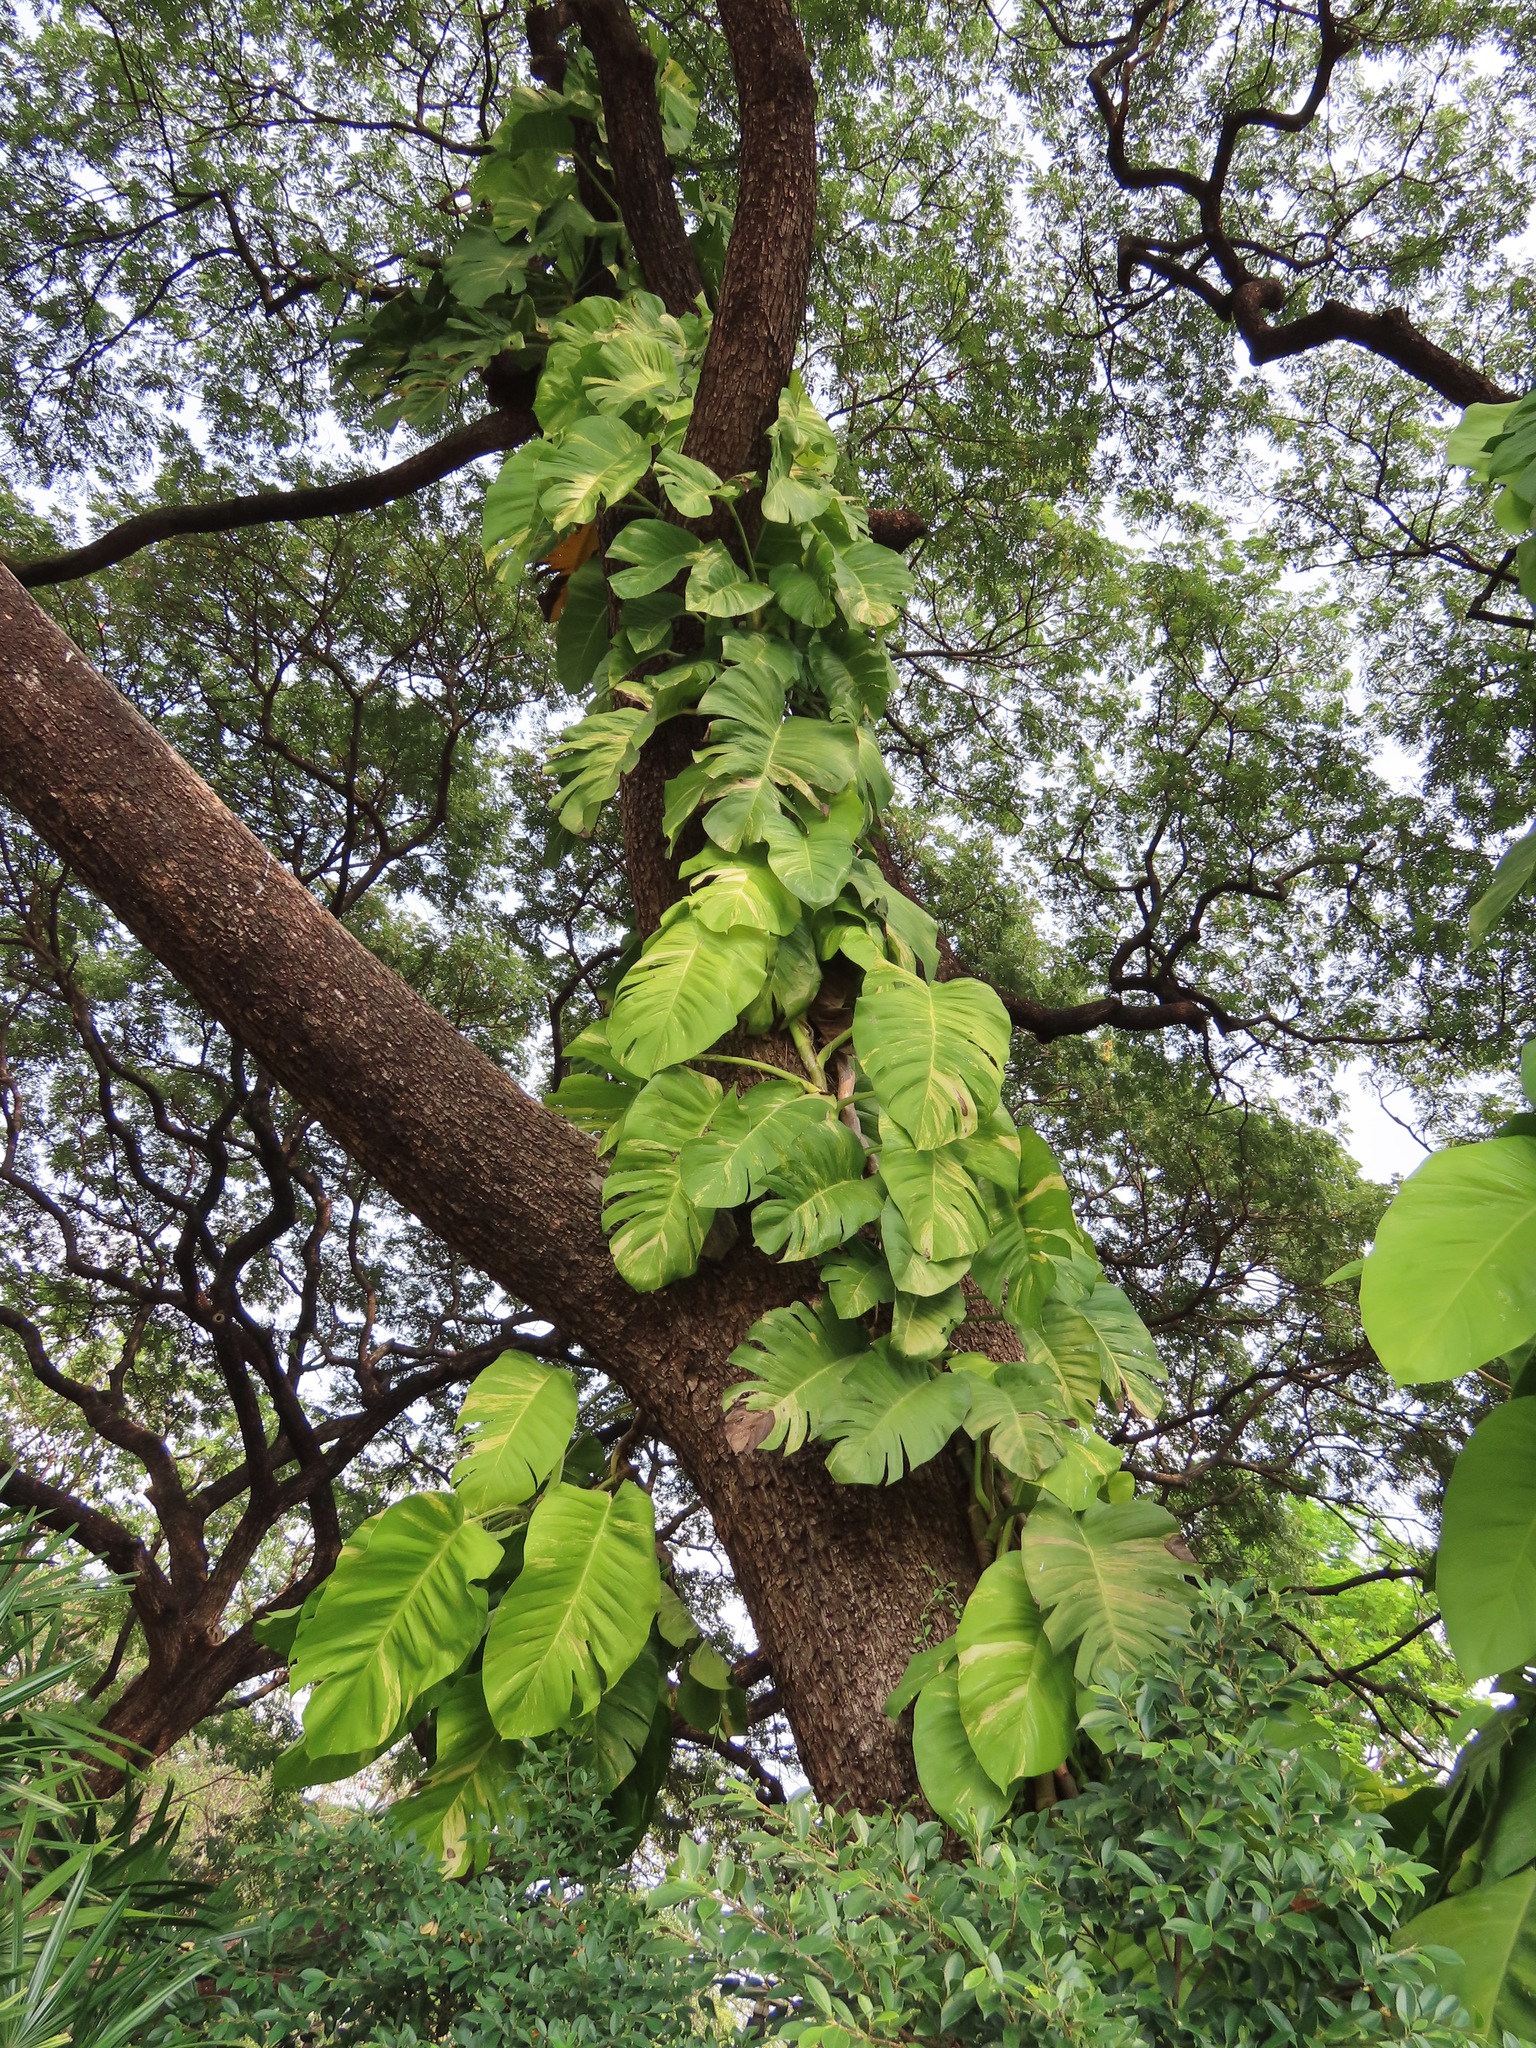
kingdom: Plantae
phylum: Tracheophyta
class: Liliopsida
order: Alismatales
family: Araceae
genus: Epipremnum
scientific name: Epipremnum aureum
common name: Golden hunter's-robe
